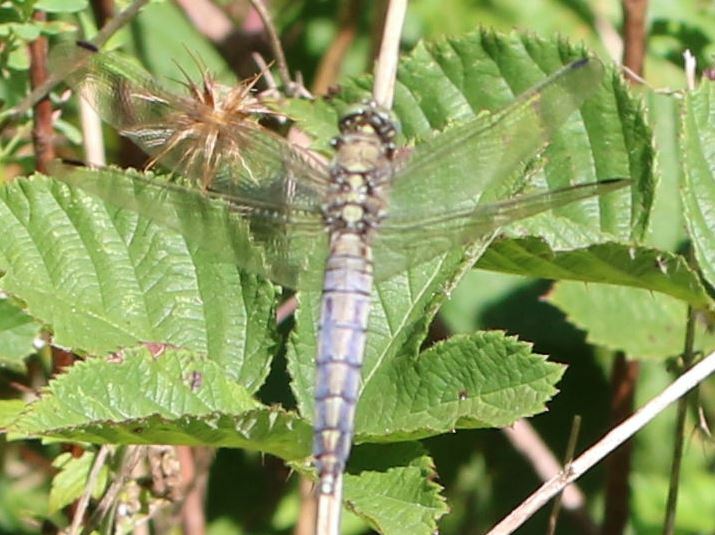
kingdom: Animalia
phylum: Arthropoda
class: Insecta
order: Odonata
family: Libellulidae
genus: Orthetrum
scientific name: Orthetrum cancellatum
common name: Black-tailed skimmer
